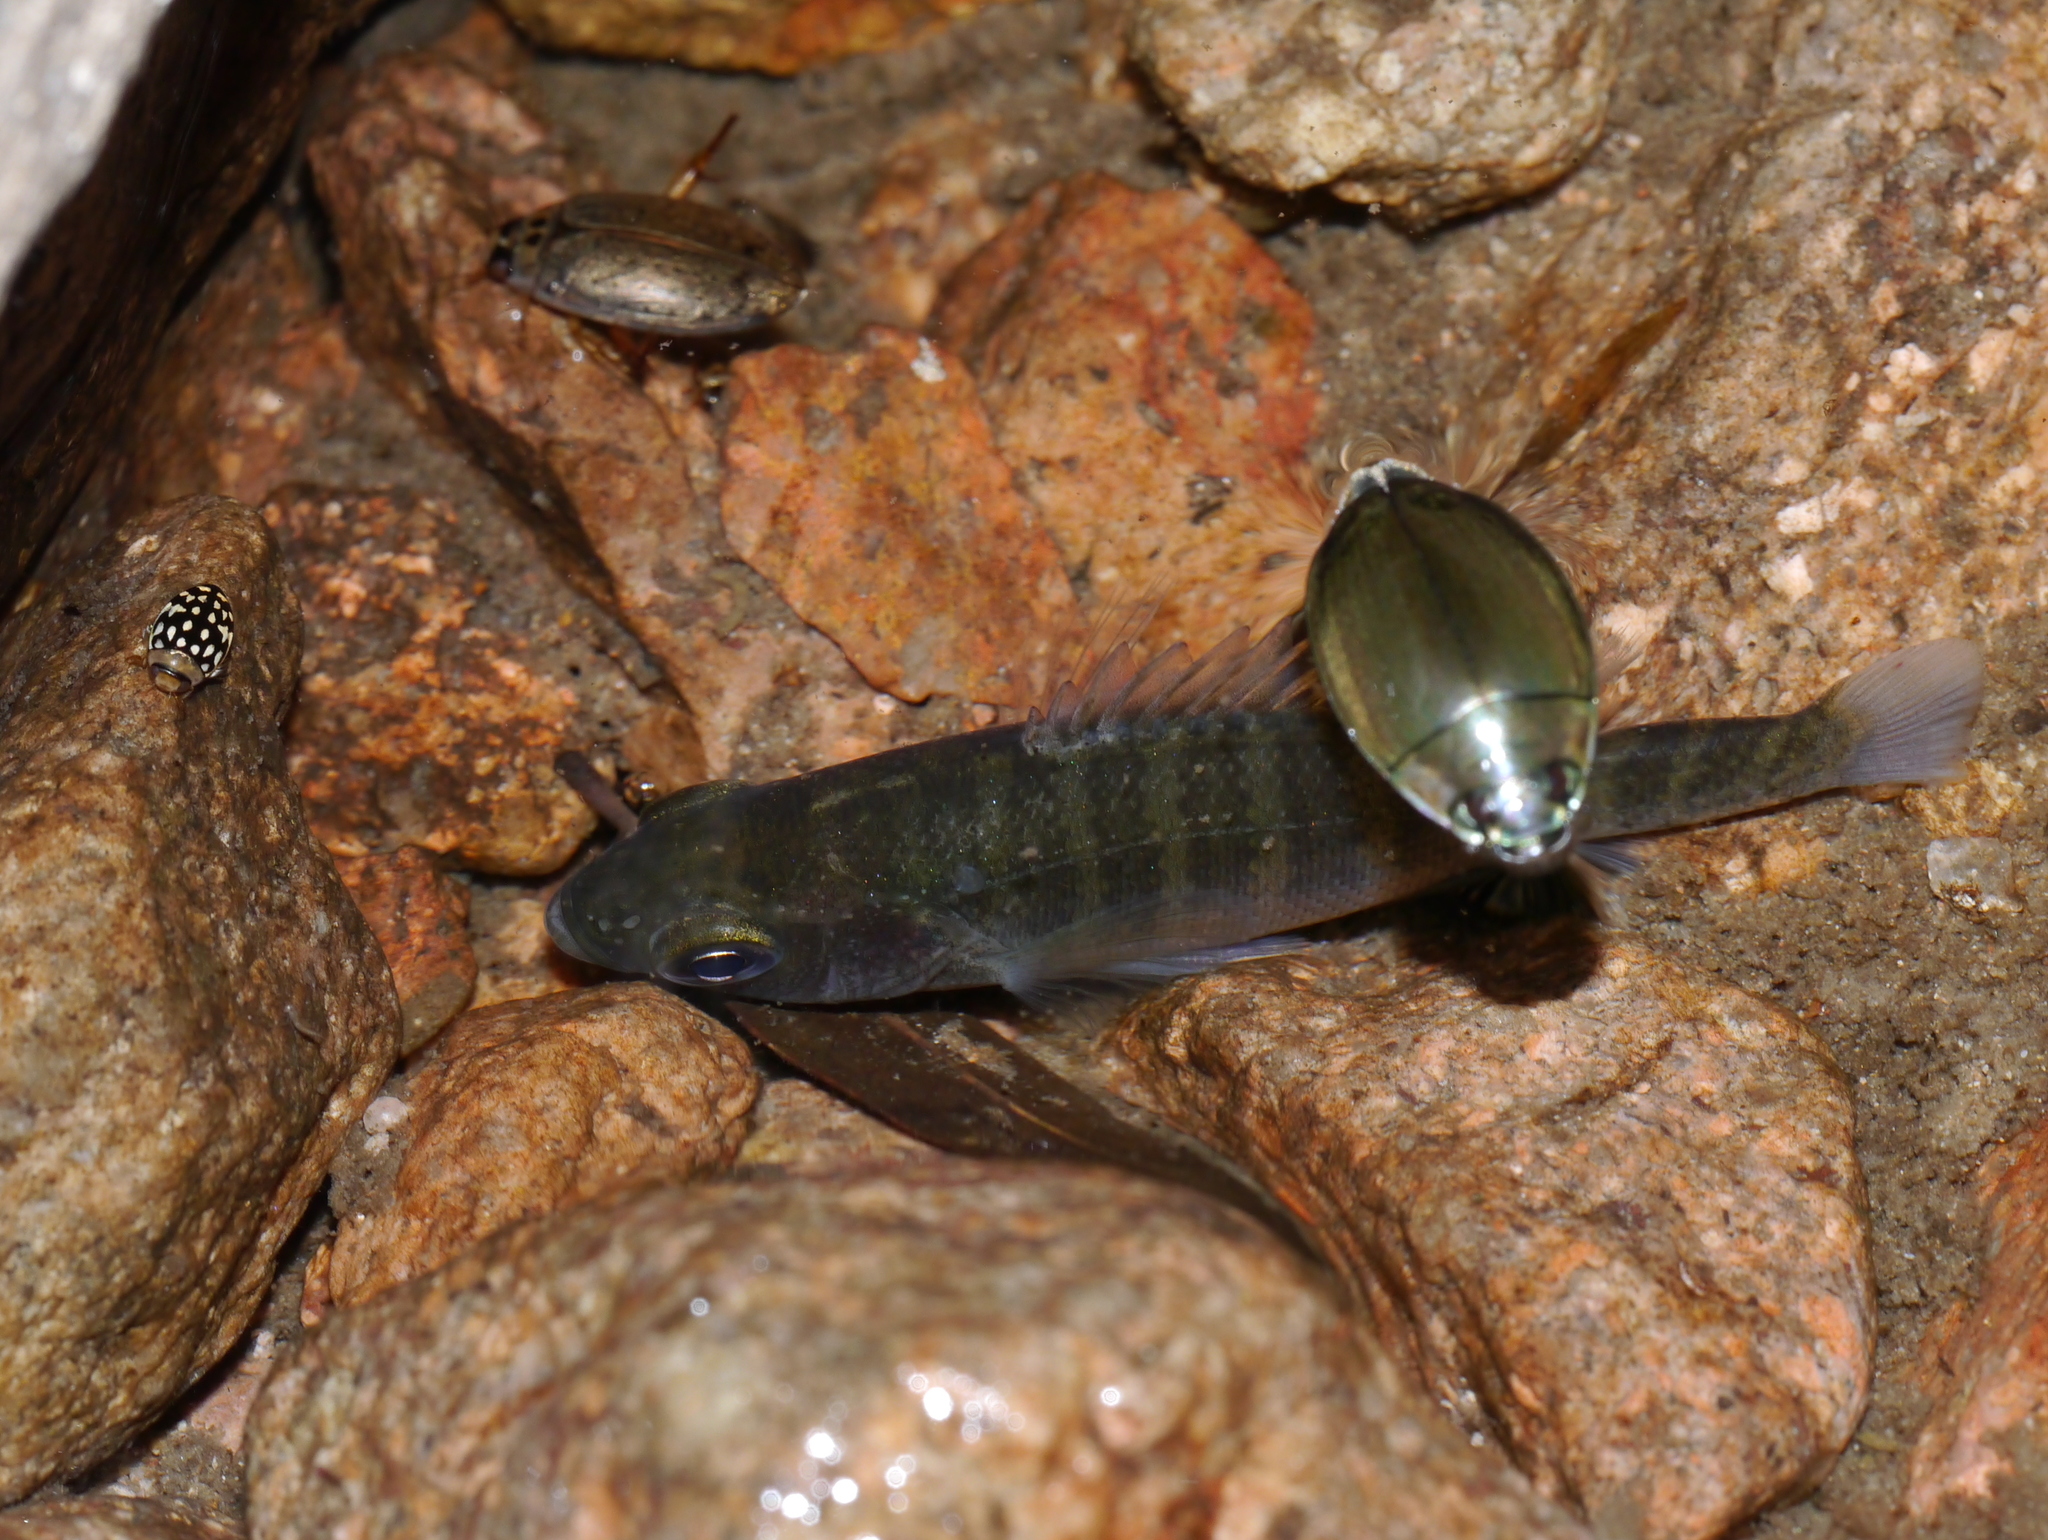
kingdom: Animalia
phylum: Chordata
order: Perciformes
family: Centrarchidae
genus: Lepomis
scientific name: Lepomis macrochirus
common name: Bluegill
